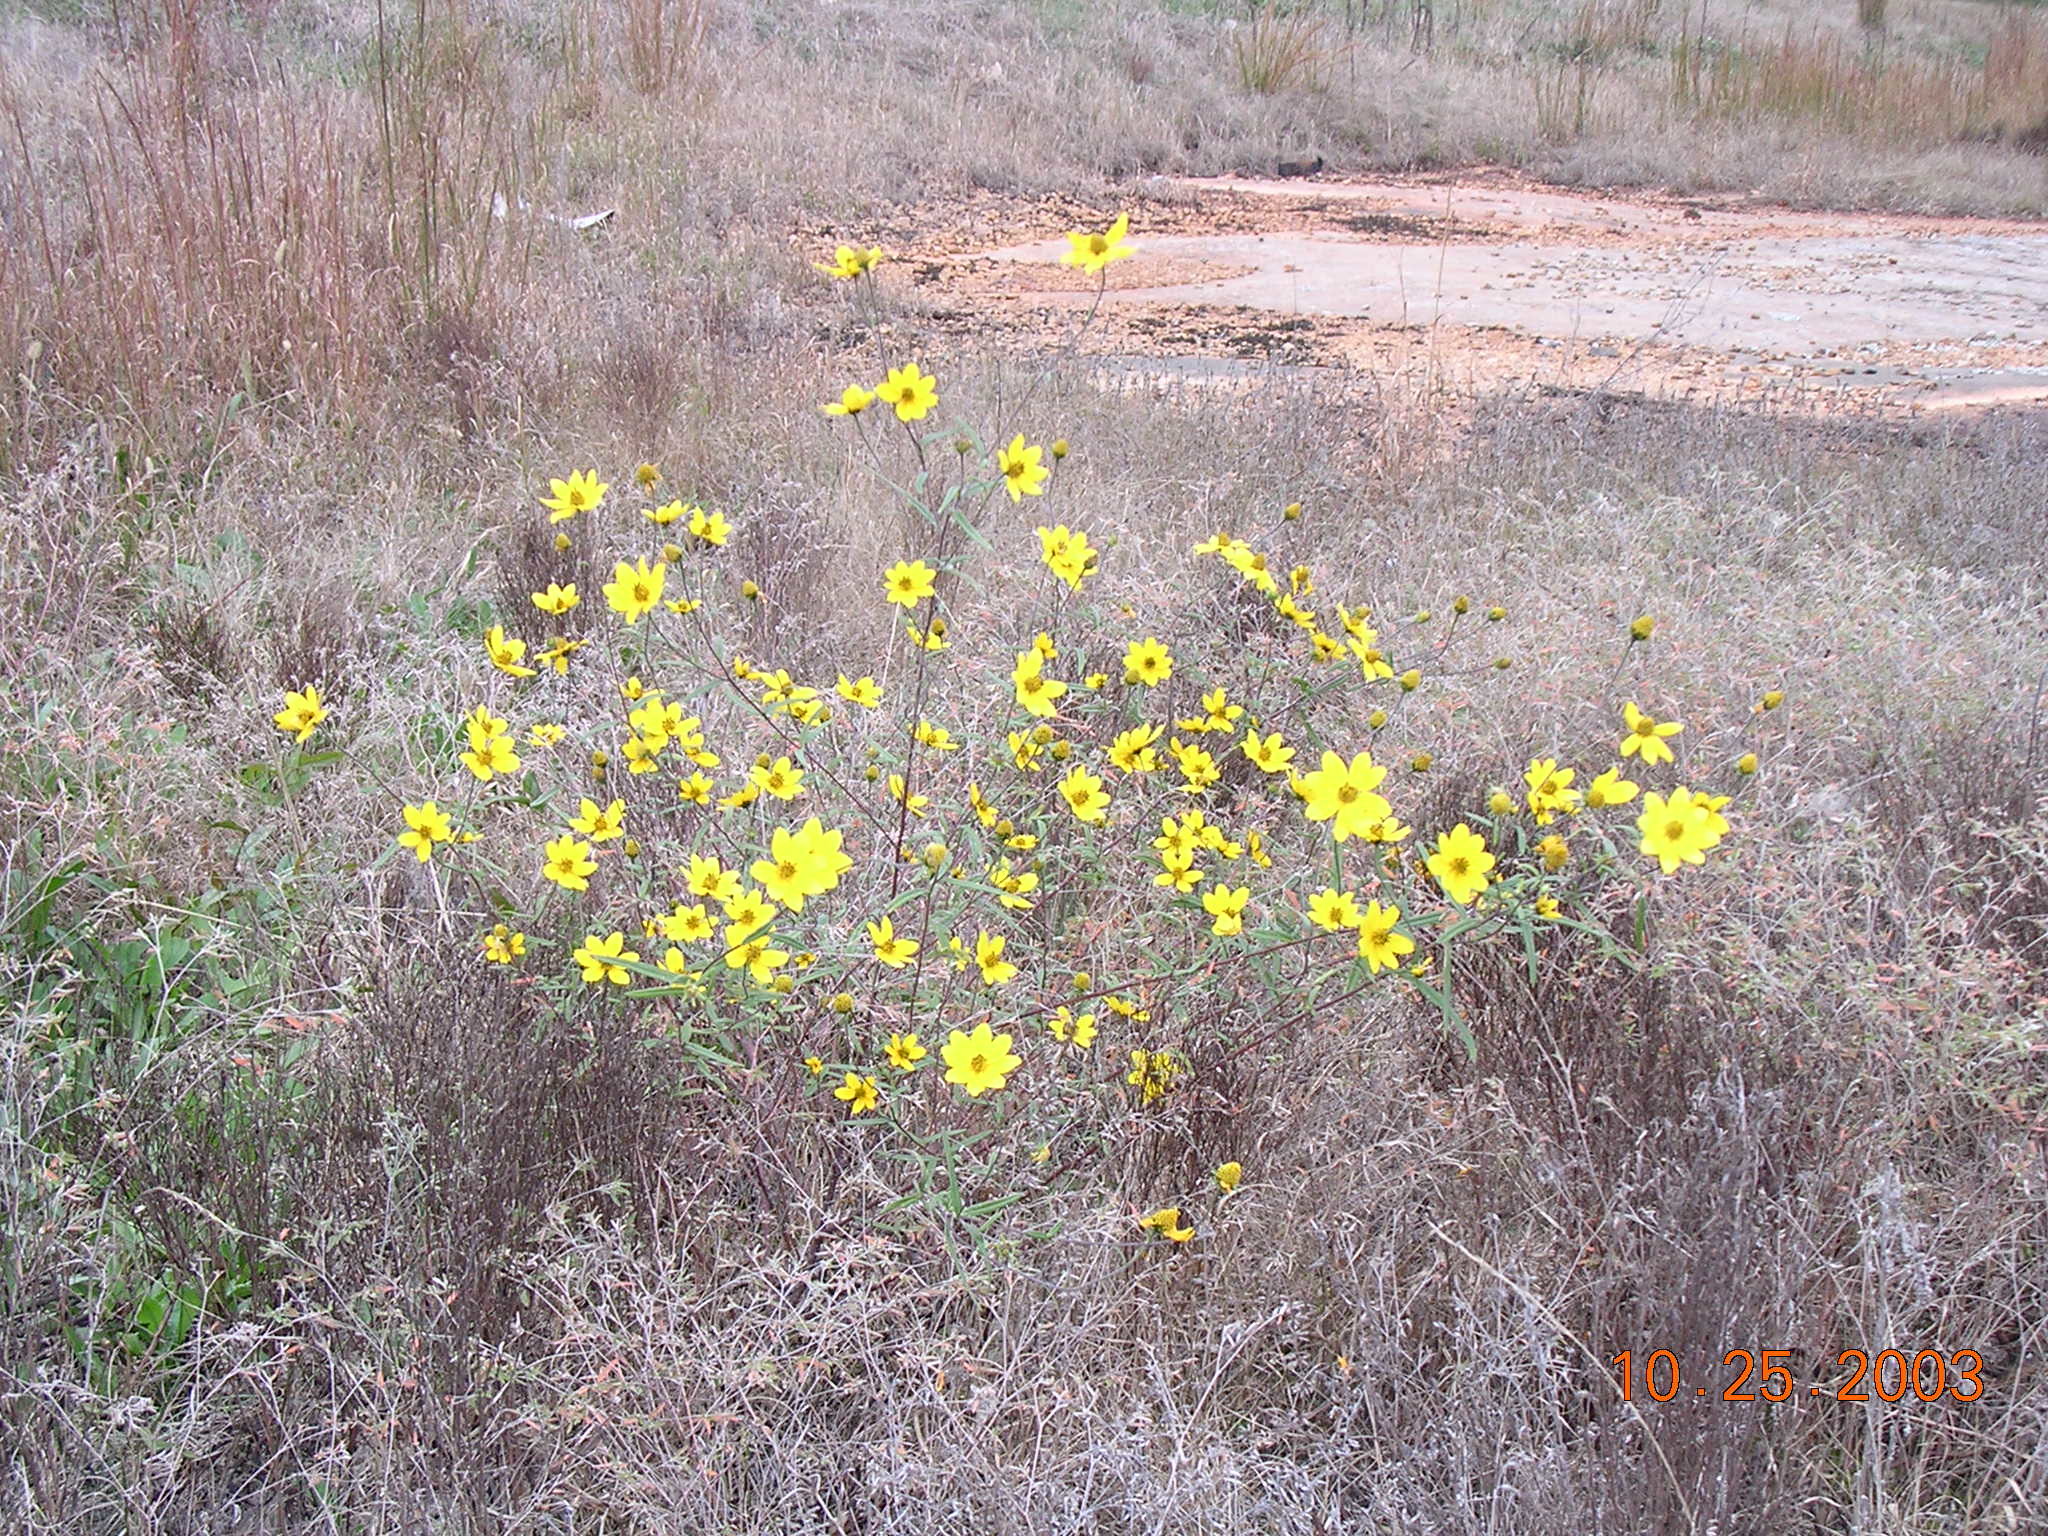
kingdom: Plantae
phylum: Tracheophyta
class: Magnoliopsida
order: Asterales
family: Asteraceae
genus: Helianthus
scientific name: Helianthus porteri
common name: Porter's sunflower
